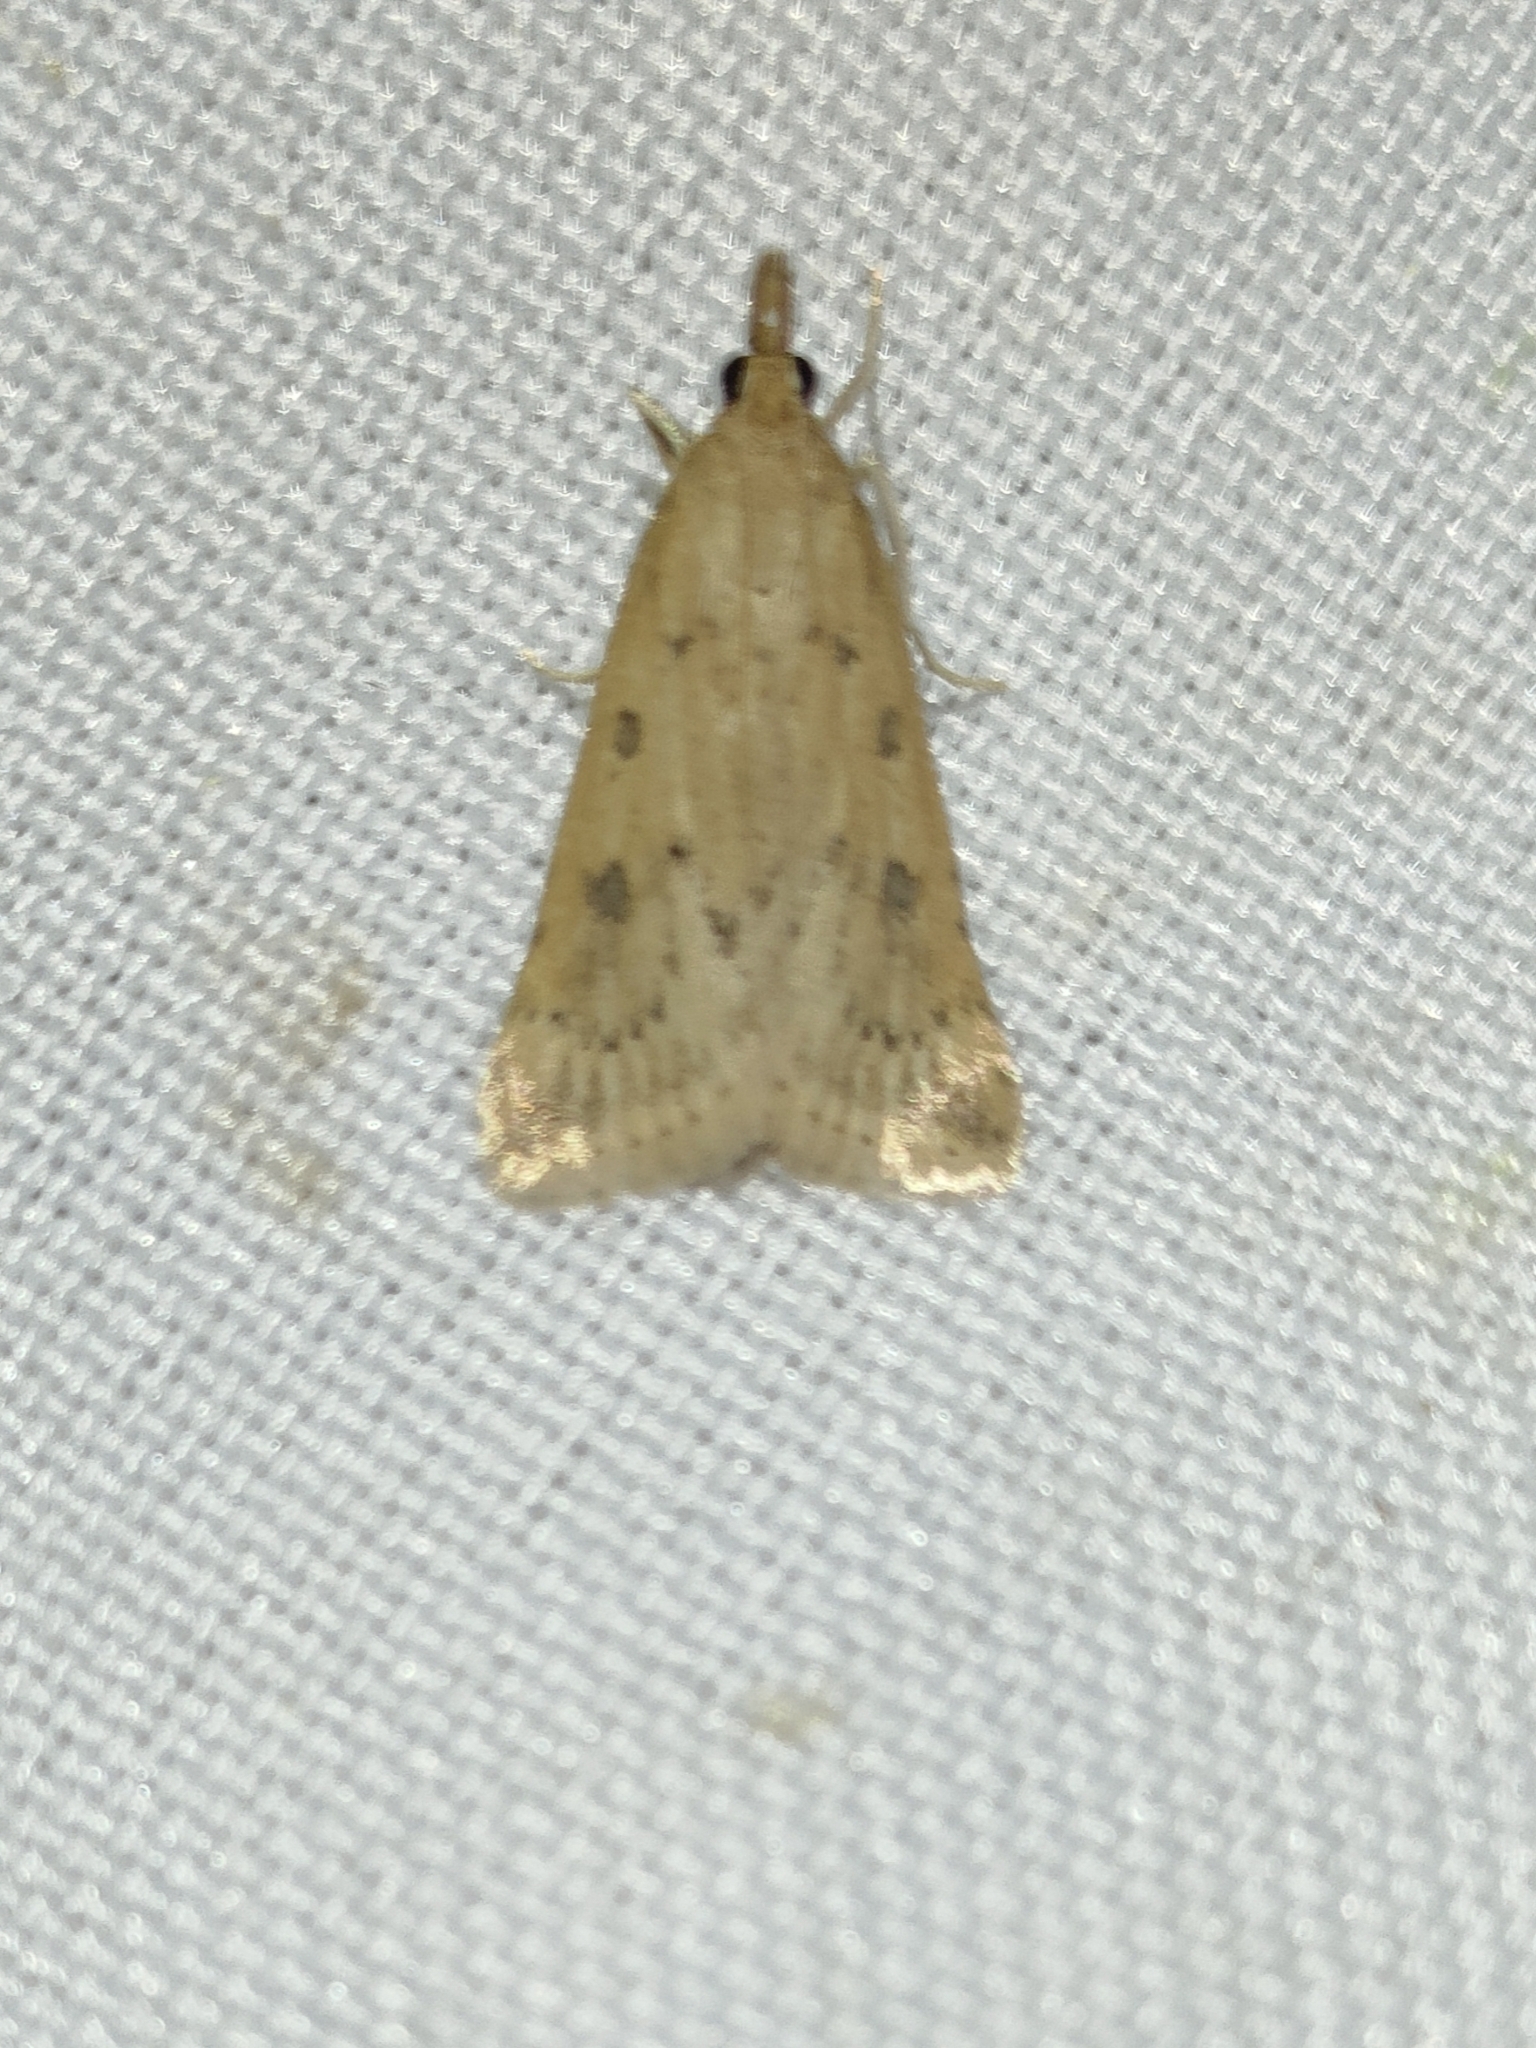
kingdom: Animalia
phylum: Arthropoda
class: Insecta
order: Lepidoptera
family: Crambidae
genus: Udea
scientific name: Udea numeralis
